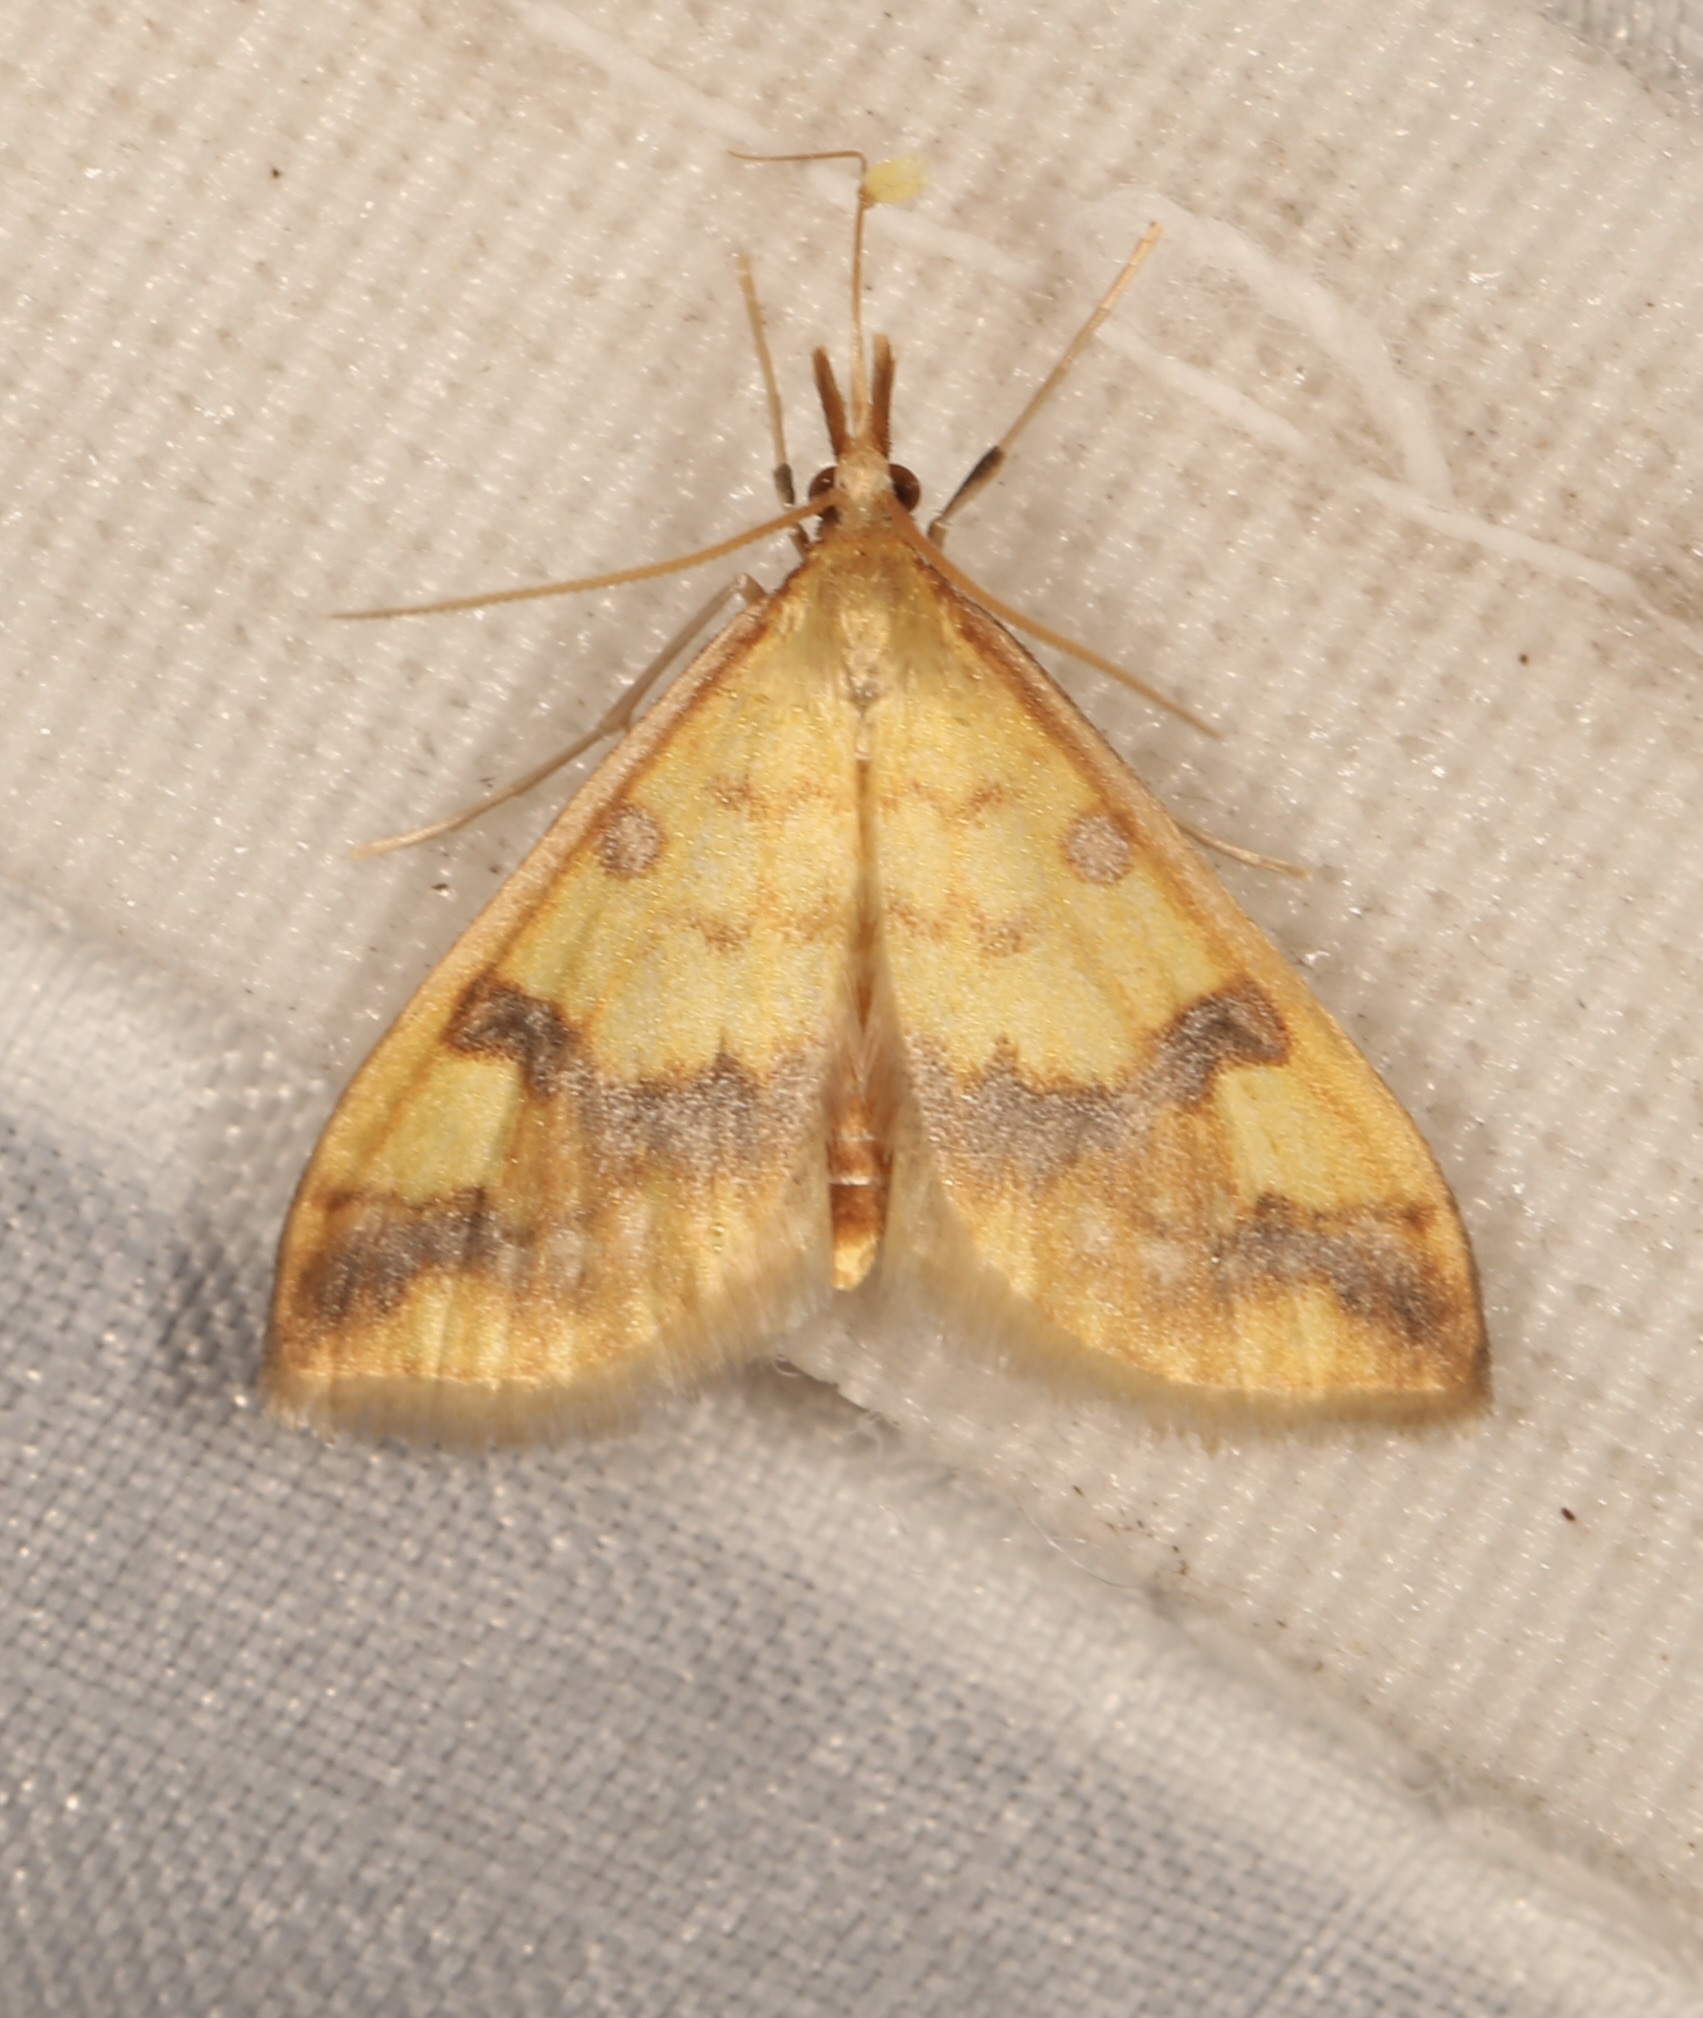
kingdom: Animalia
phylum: Arthropoda
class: Insecta
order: Lepidoptera
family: Crambidae
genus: Choristostigma
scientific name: Choristostigma plumbosignalis
